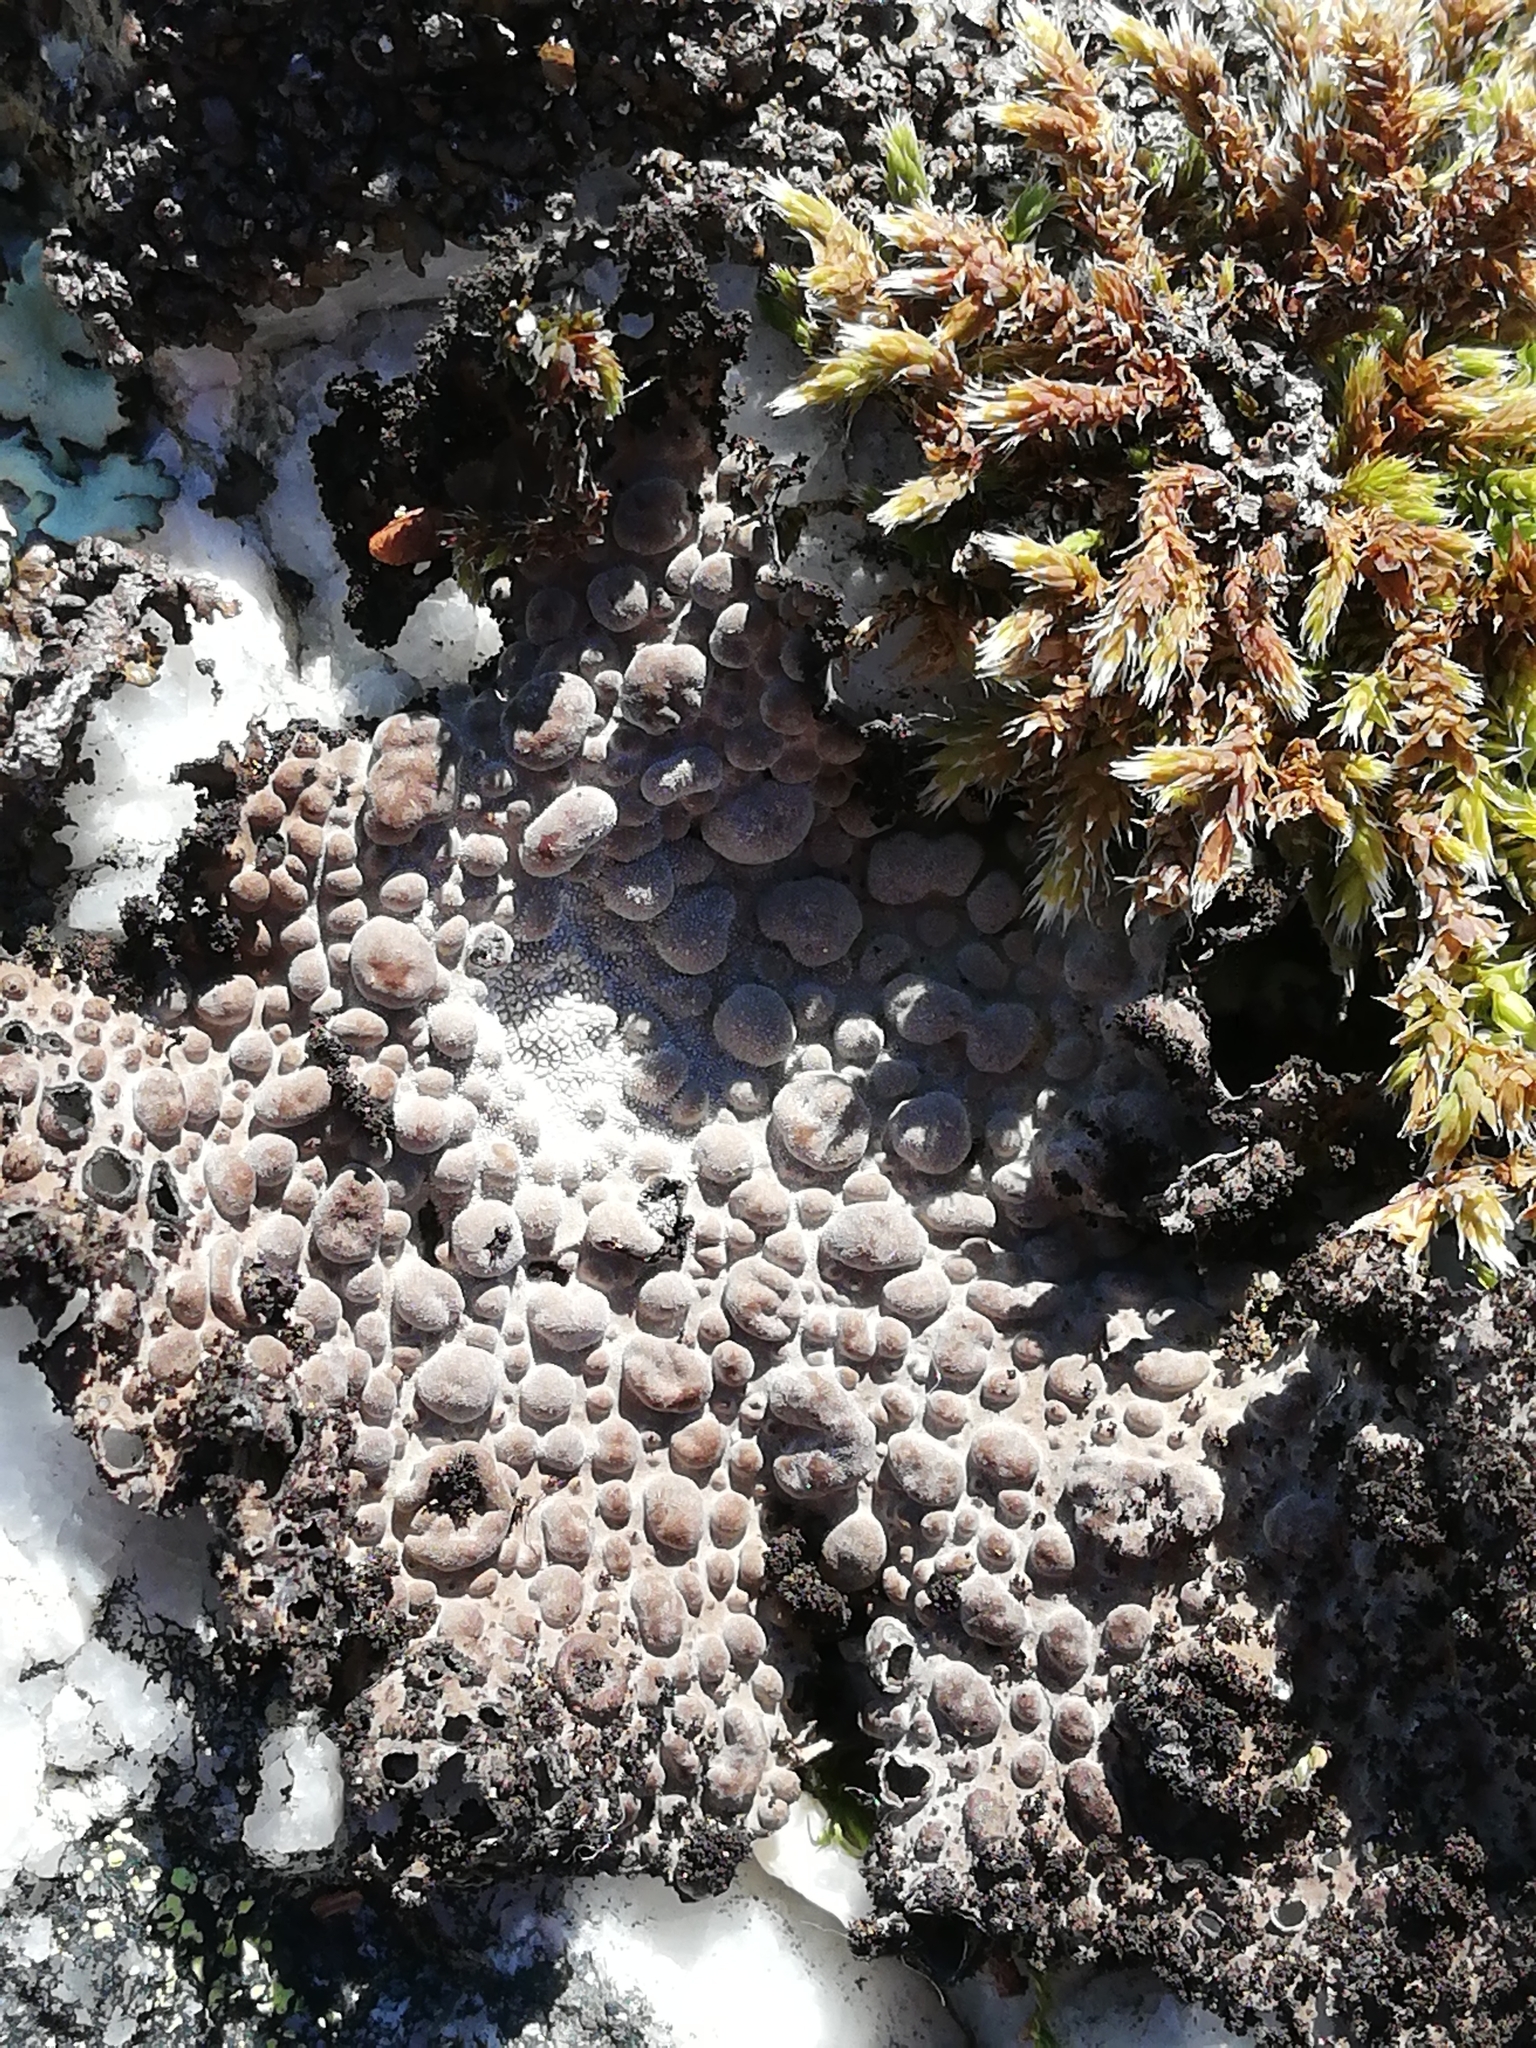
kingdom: Fungi
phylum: Ascomycota
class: Lecanoromycetes
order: Umbilicariales
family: Umbilicariaceae
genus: Lasallia
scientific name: Lasallia pustulata
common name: Blistered toadskin lichen
